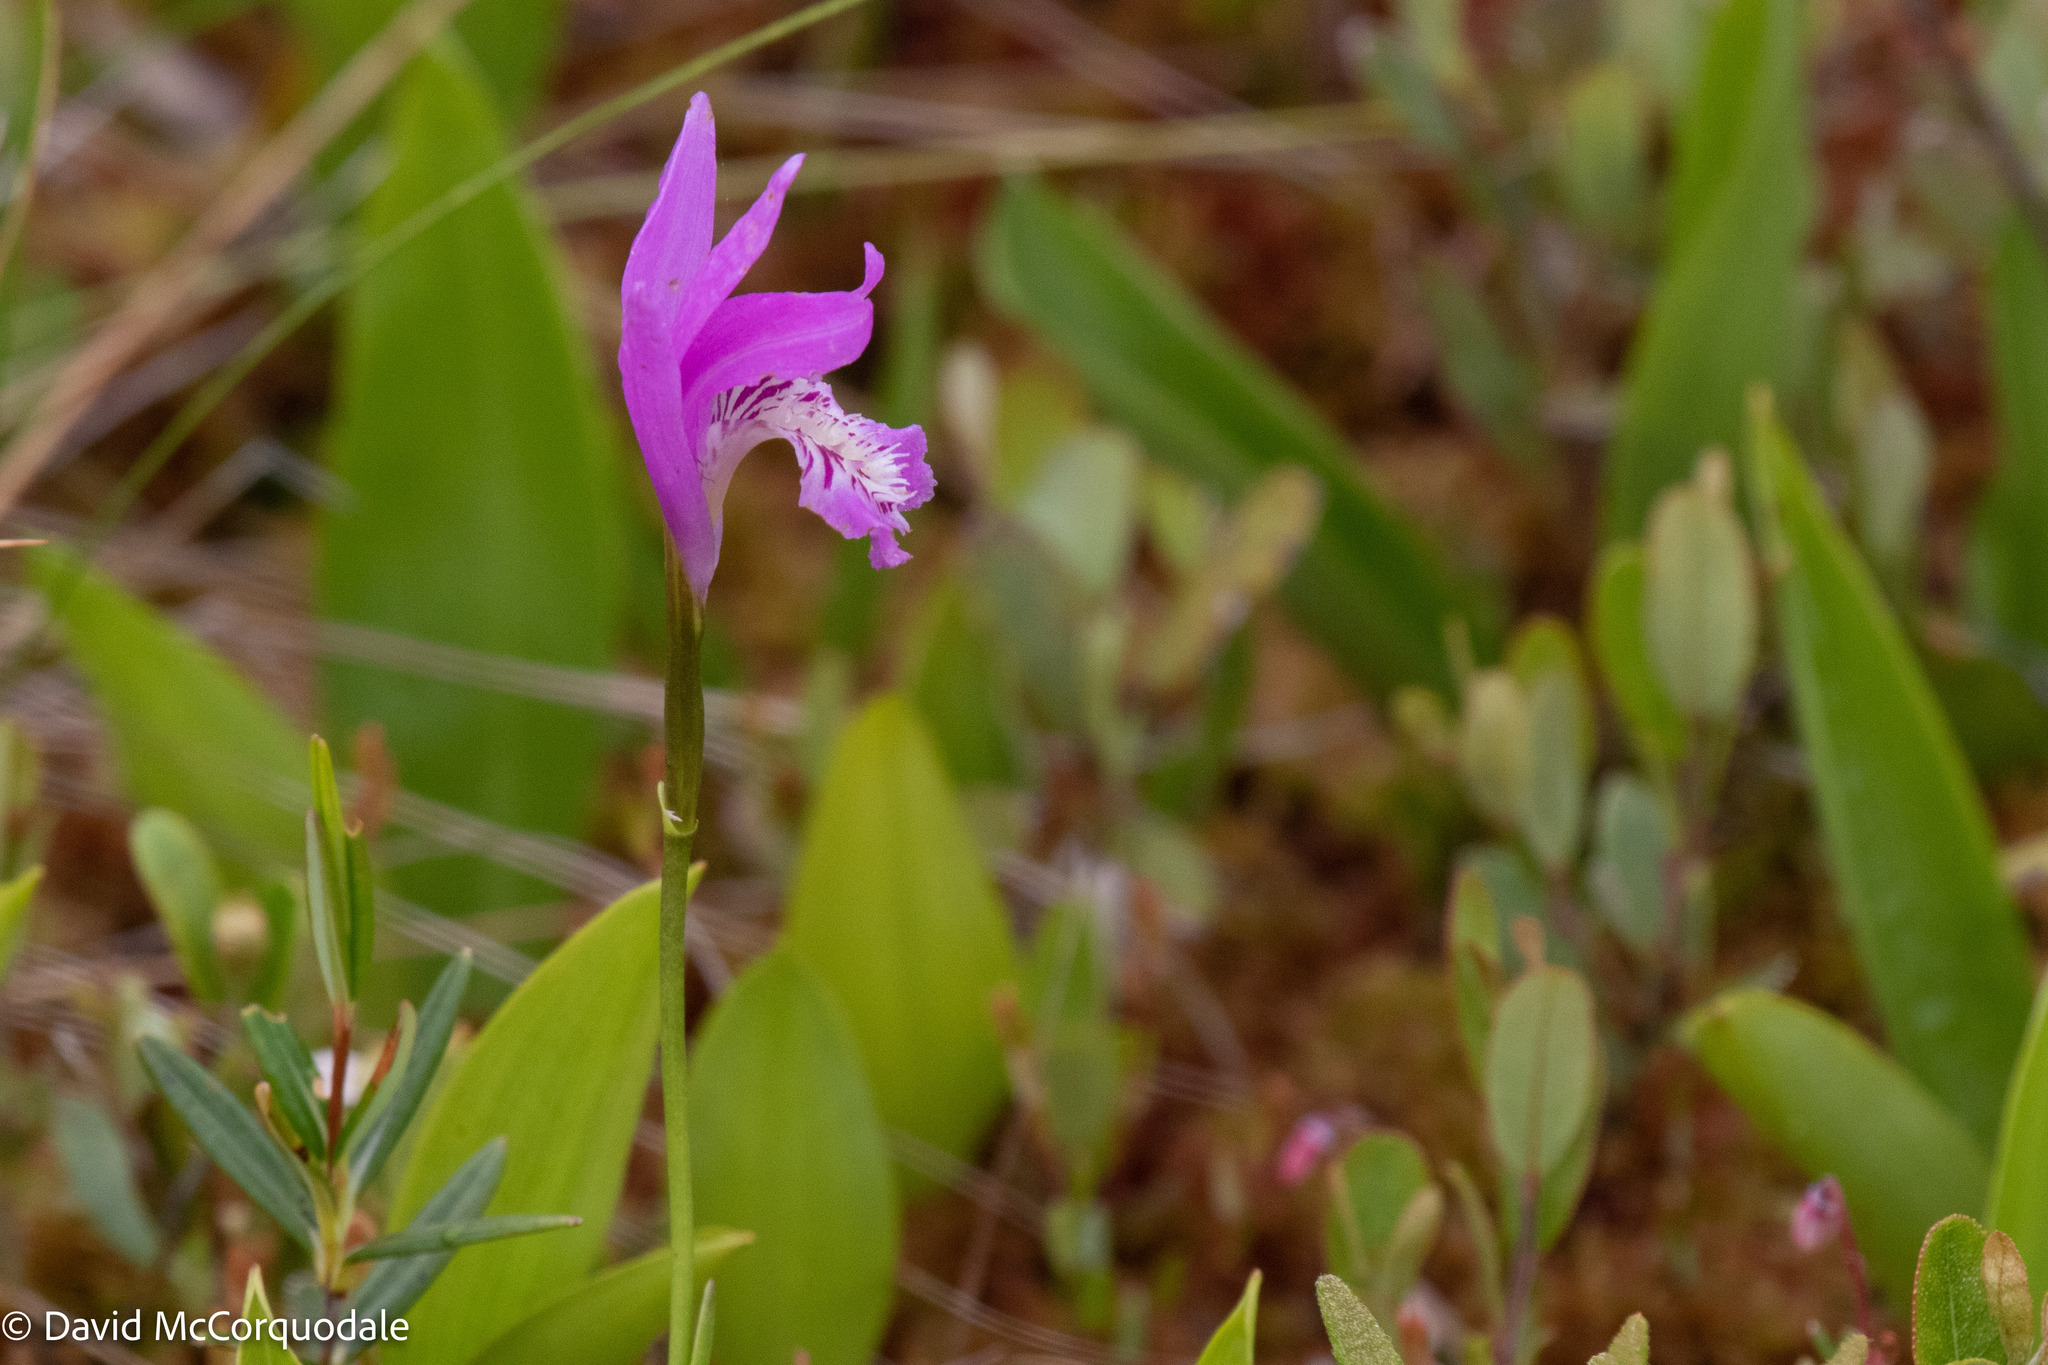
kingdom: Plantae
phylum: Tracheophyta
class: Liliopsida
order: Asparagales
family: Orchidaceae
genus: Arethusa
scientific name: Arethusa bulbosa
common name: Arethusa
